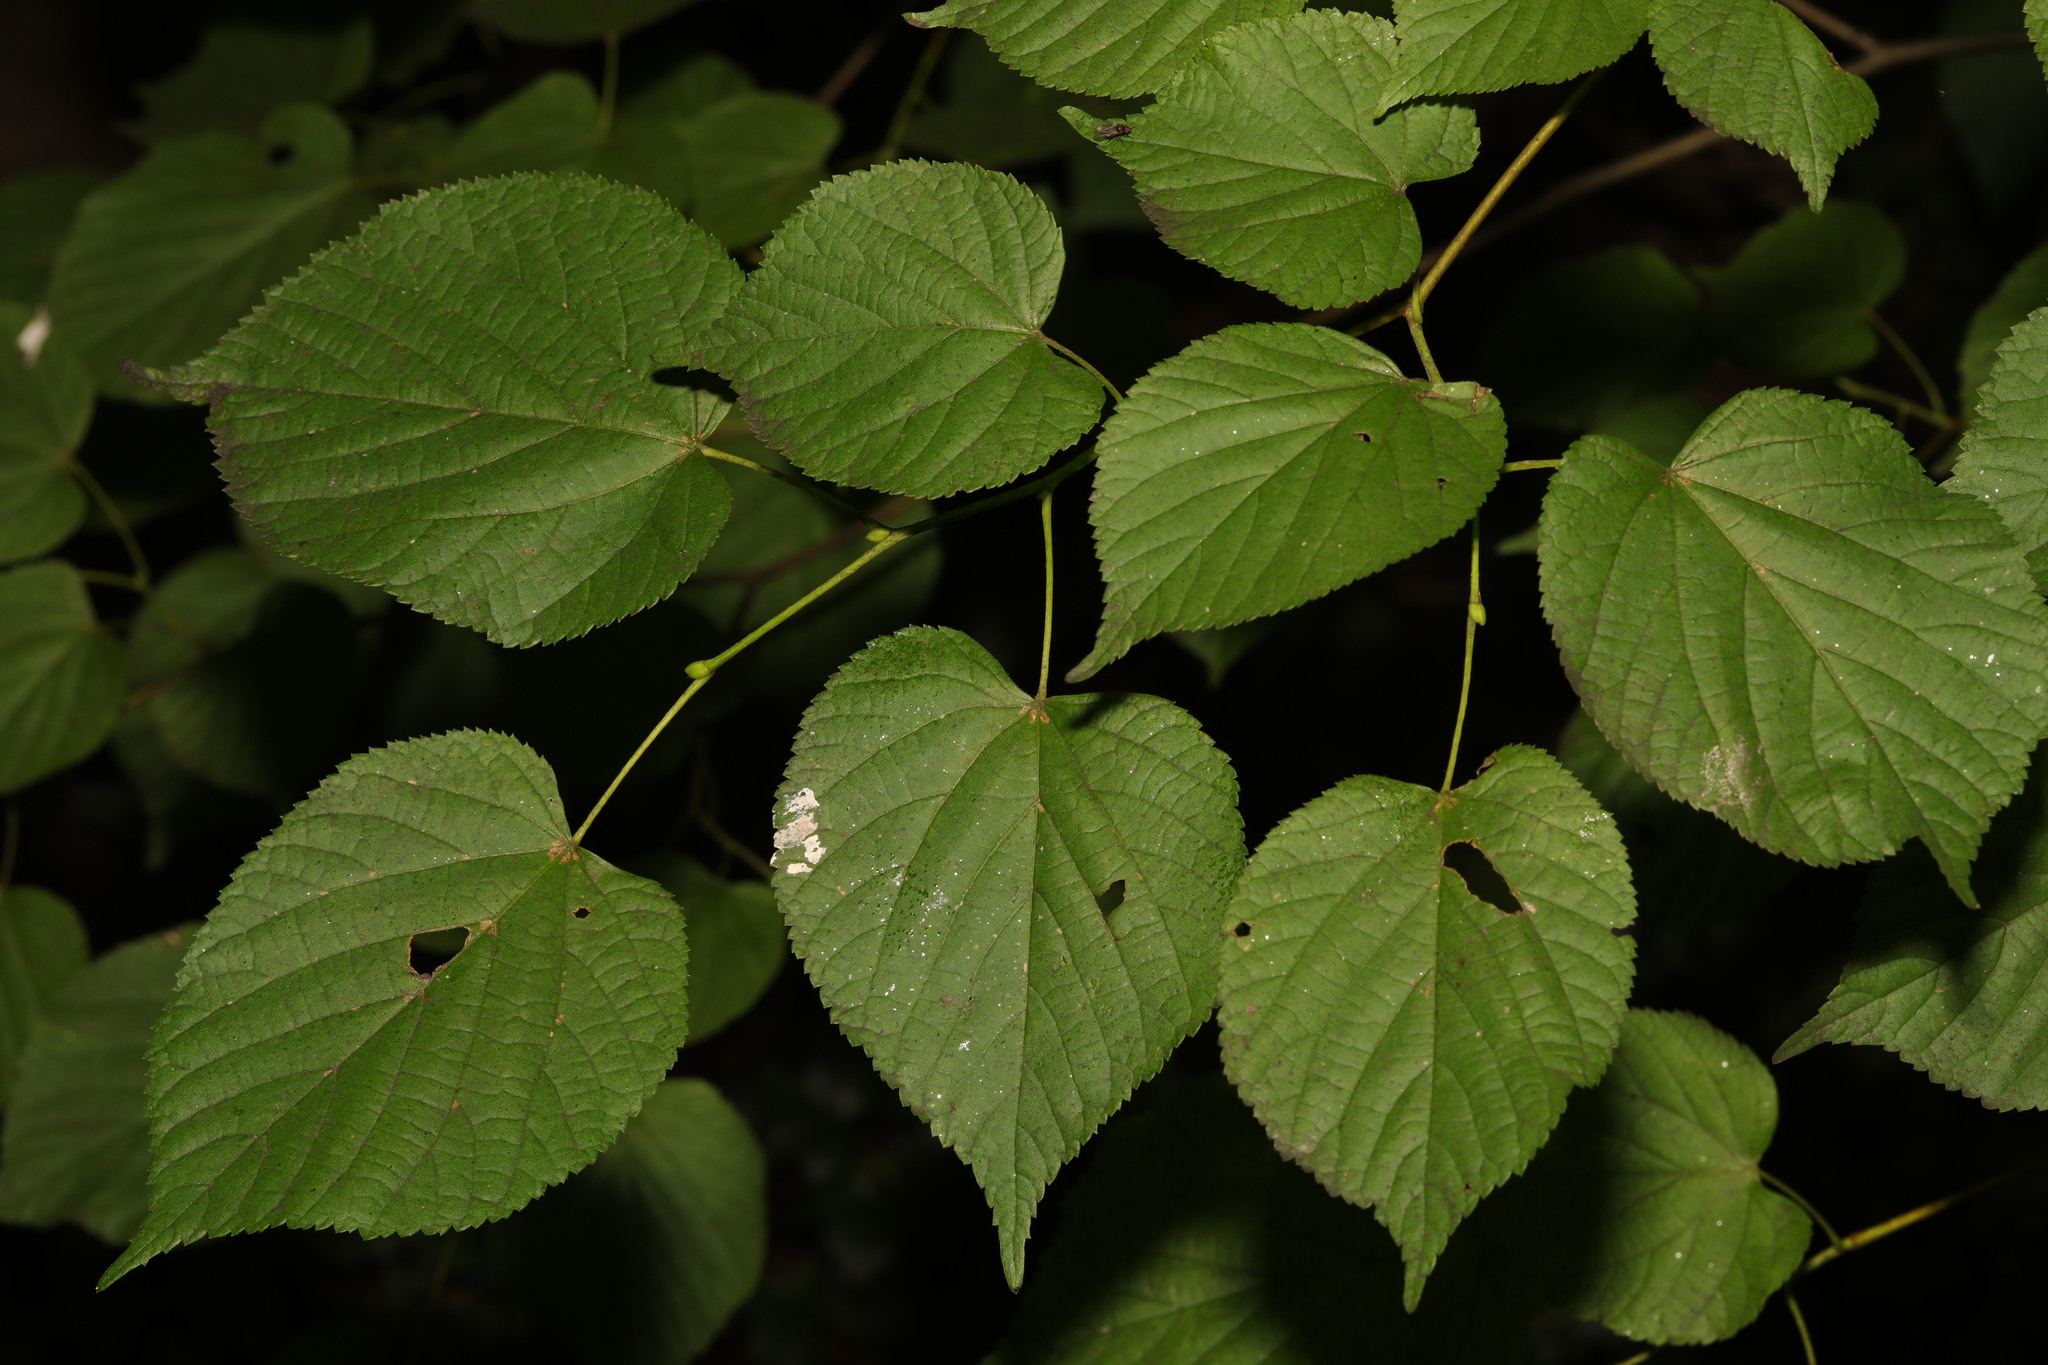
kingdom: Plantae
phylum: Tracheophyta
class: Magnoliopsida
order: Malvales
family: Malvaceae
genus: Tilia
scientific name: Tilia europaea
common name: European linden
